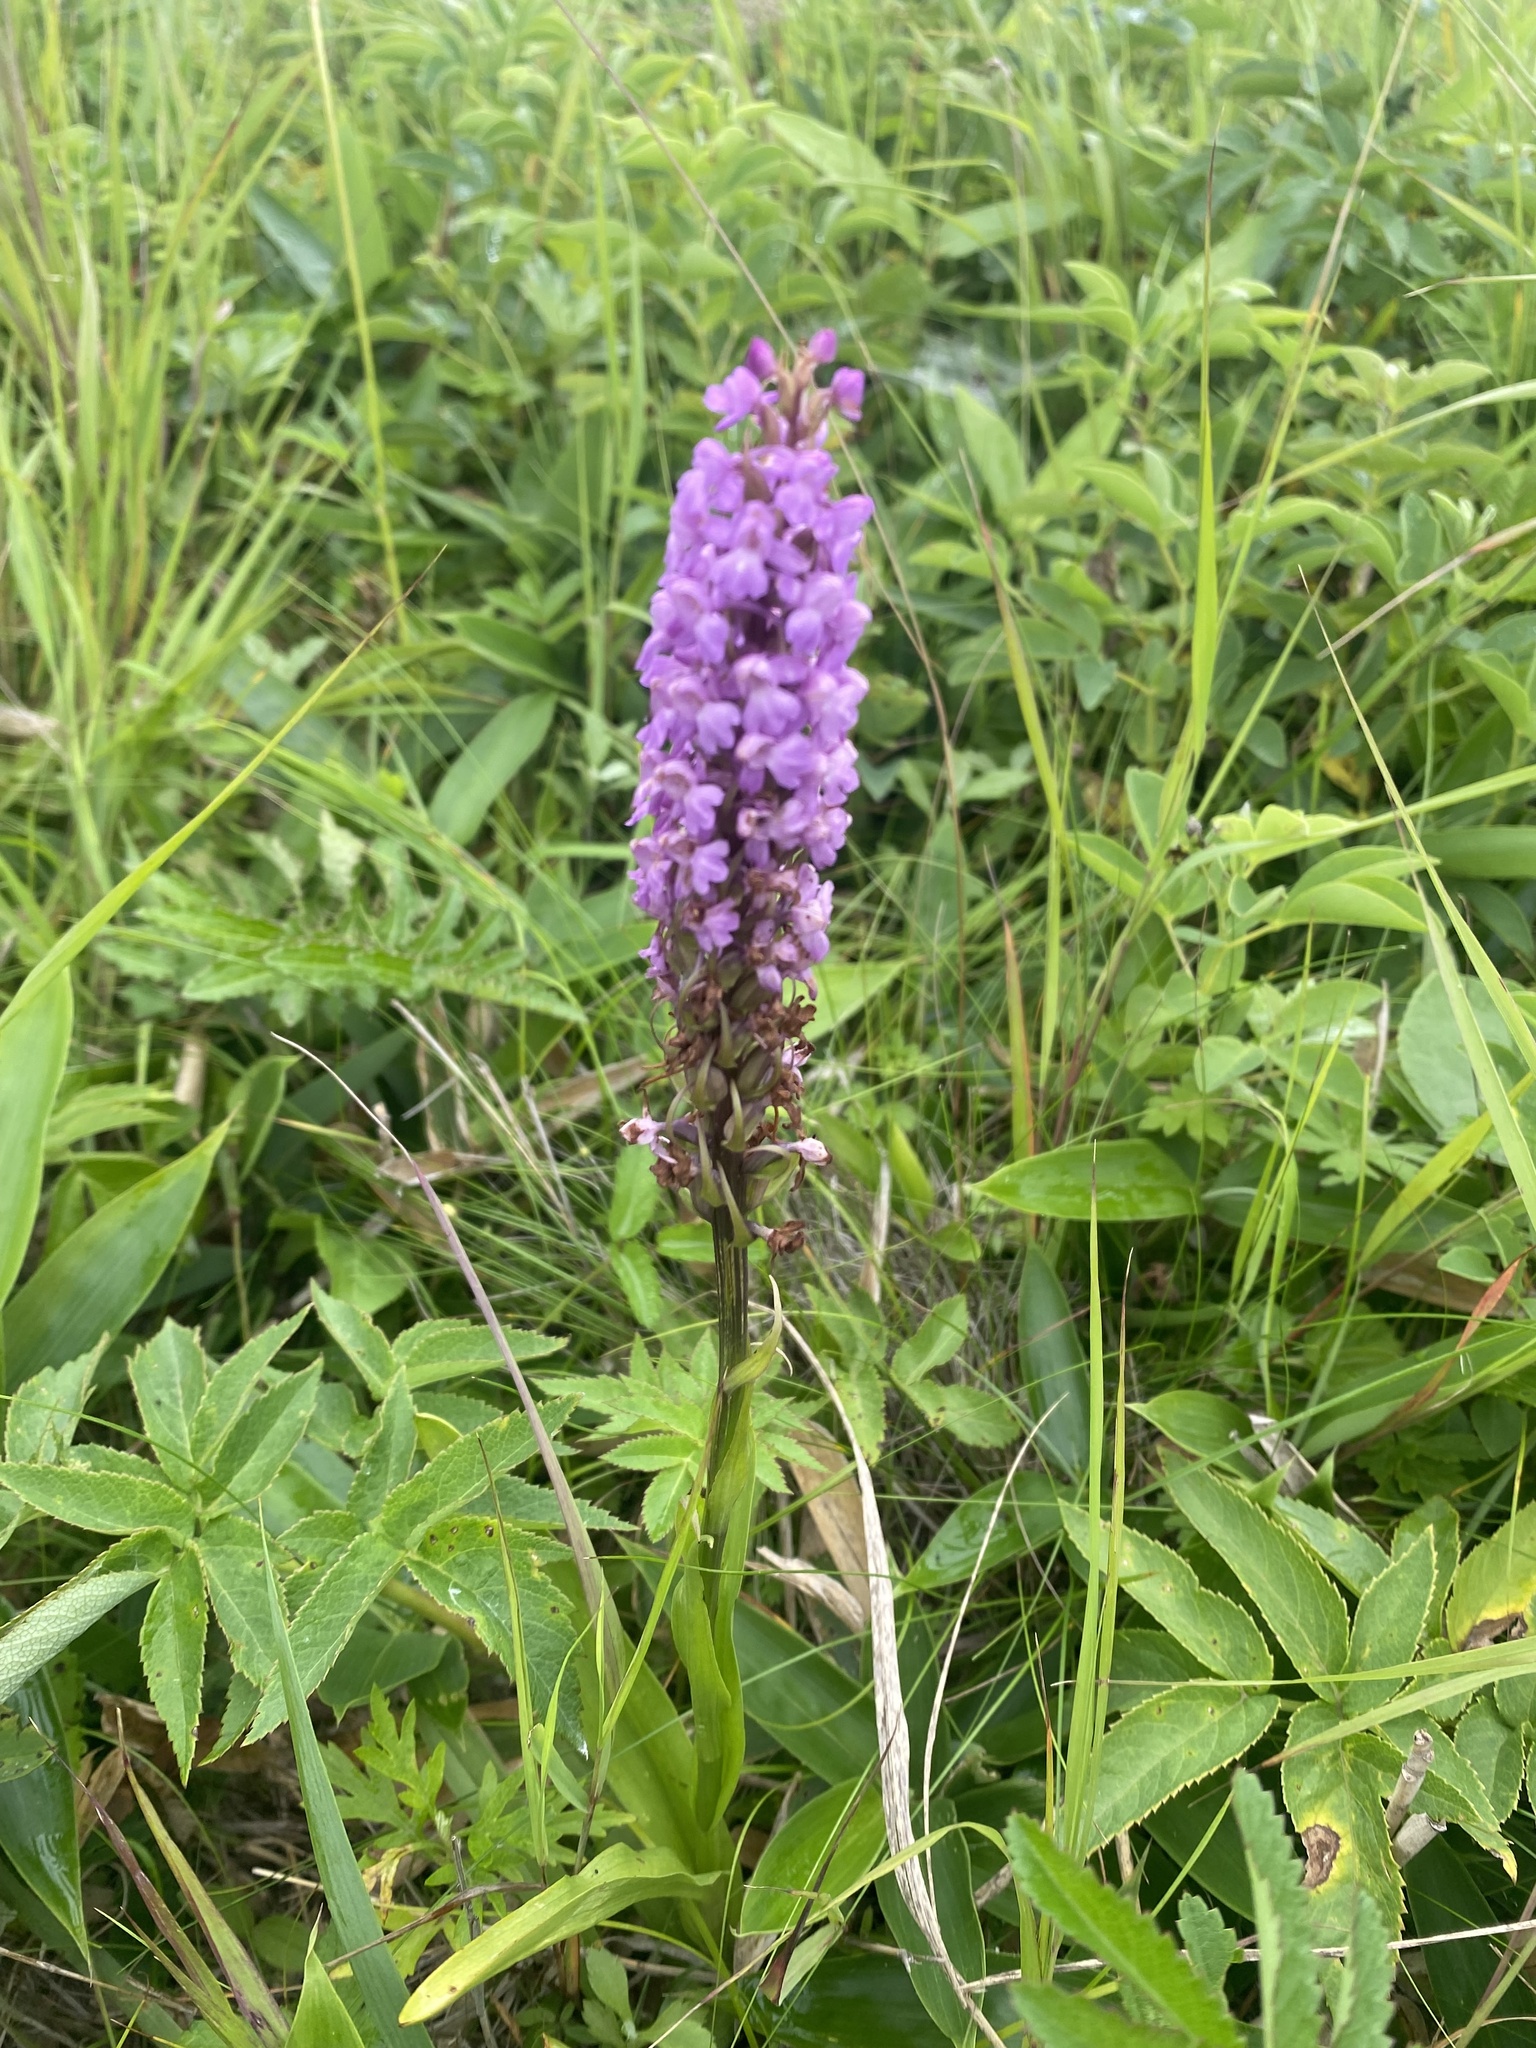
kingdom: Plantae
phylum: Tracheophyta
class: Liliopsida
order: Asparagales
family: Orchidaceae
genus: Gymnadenia
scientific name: Gymnadenia conopsea
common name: Fragrant orchid
